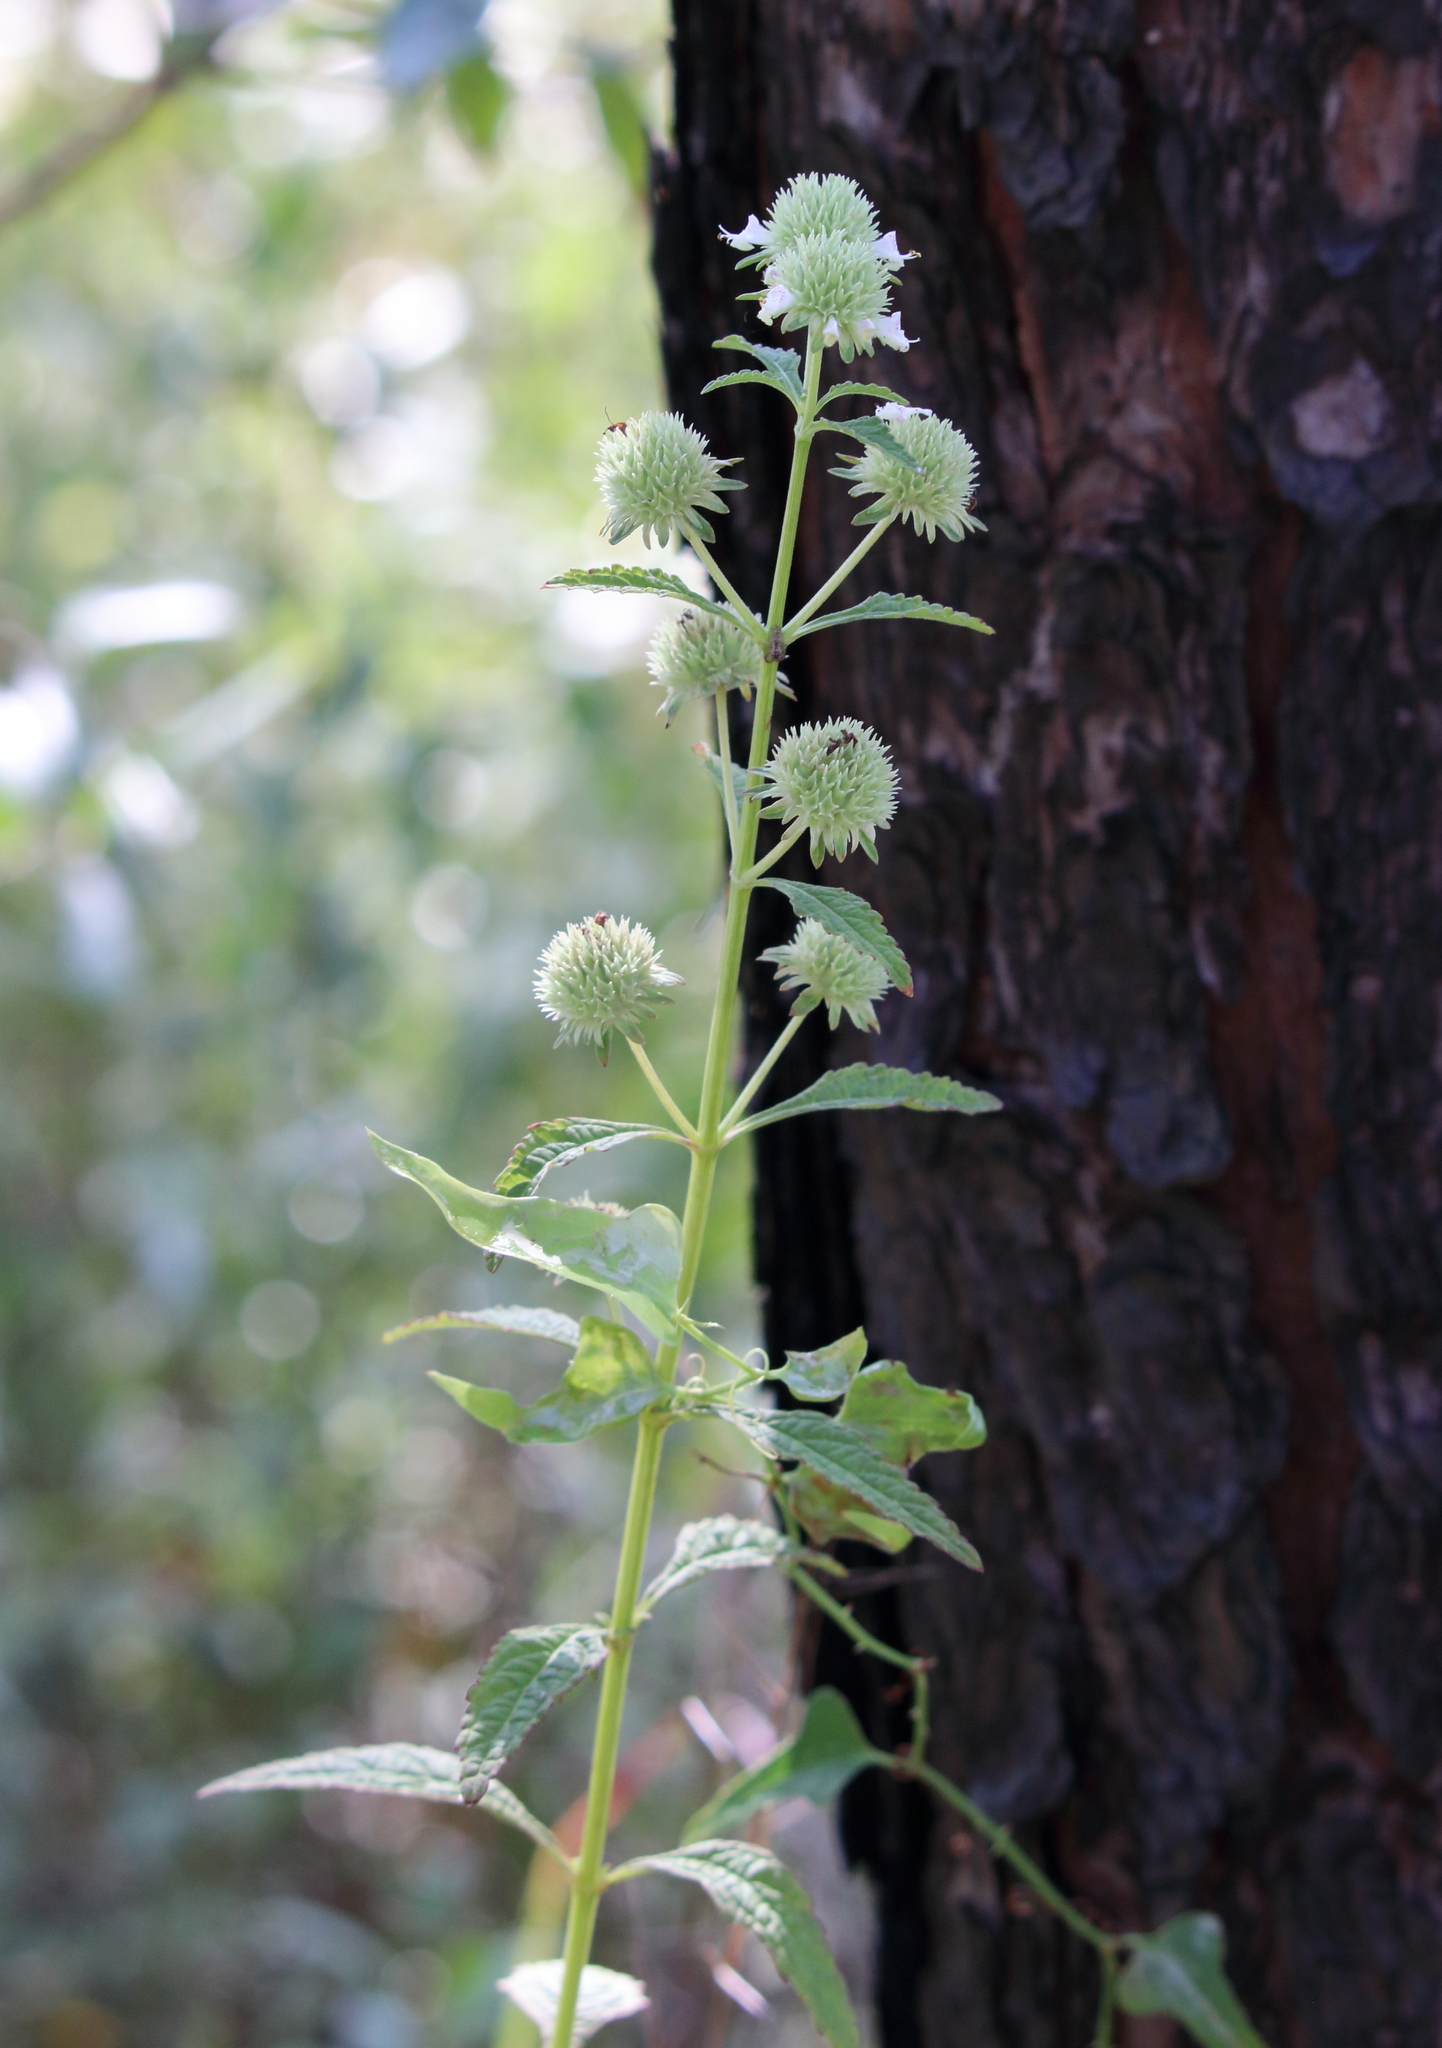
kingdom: Plantae
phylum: Tracheophyta
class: Magnoliopsida
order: Lamiales
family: Lamiaceae
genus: Hyptis
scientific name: Hyptis alata
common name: Cluster bush-mint
